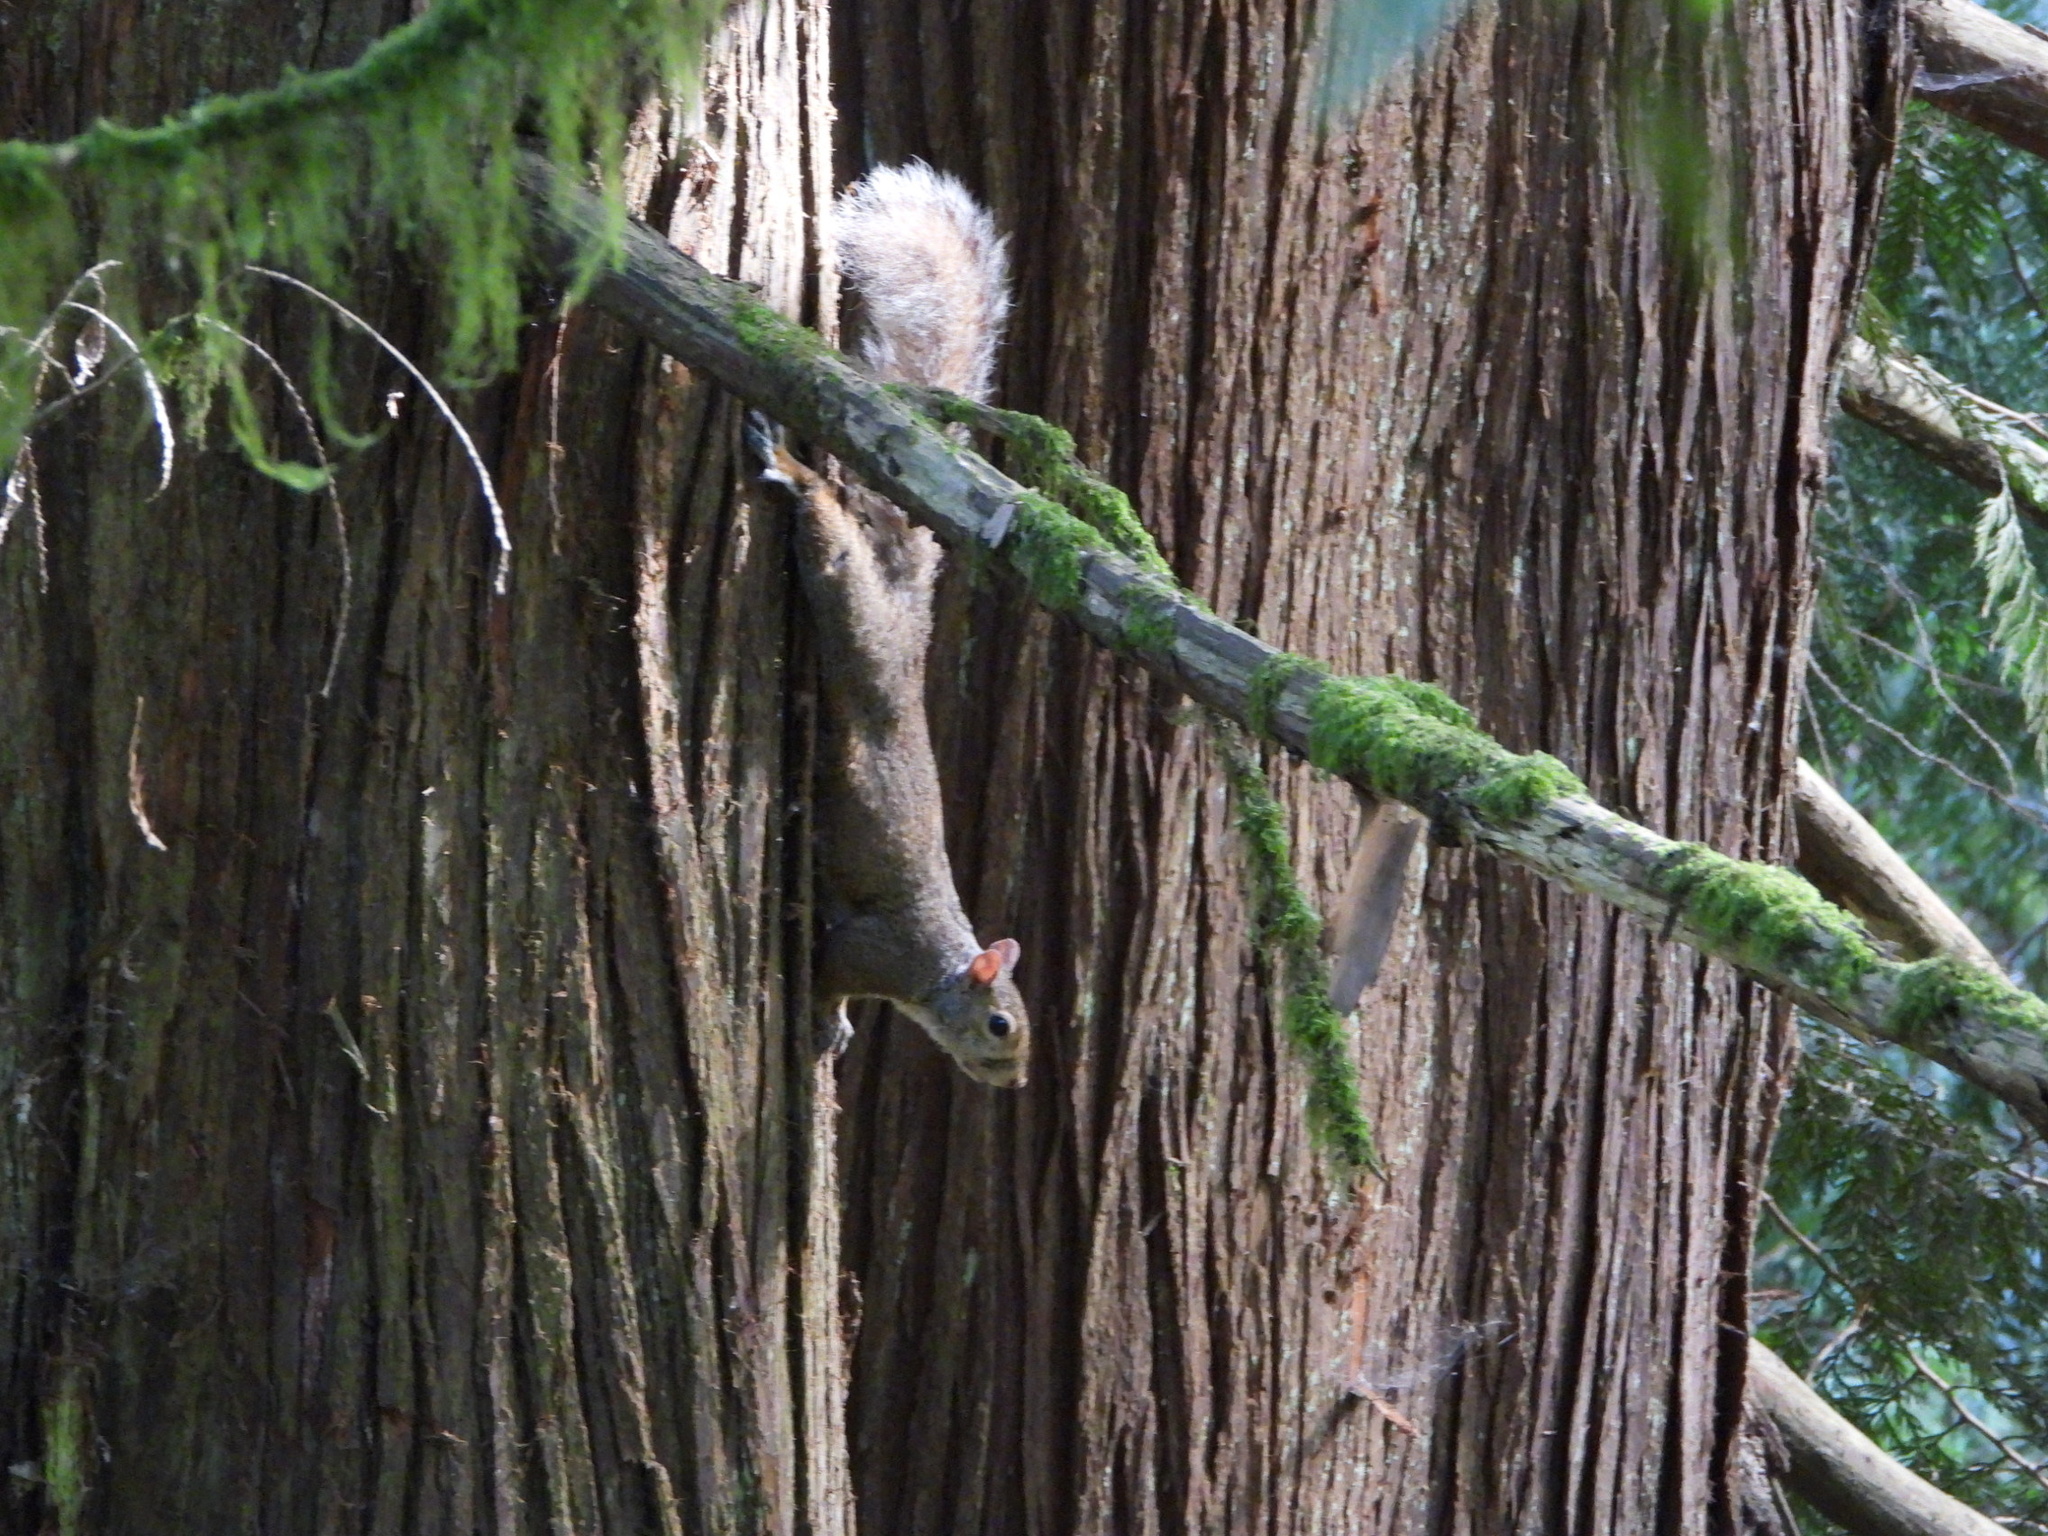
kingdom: Animalia
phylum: Chordata
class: Mammalia
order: Rodentia
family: Sciuridae
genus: Sciurus
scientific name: Sciurus carolinensis
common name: Eastern gray squirrel
